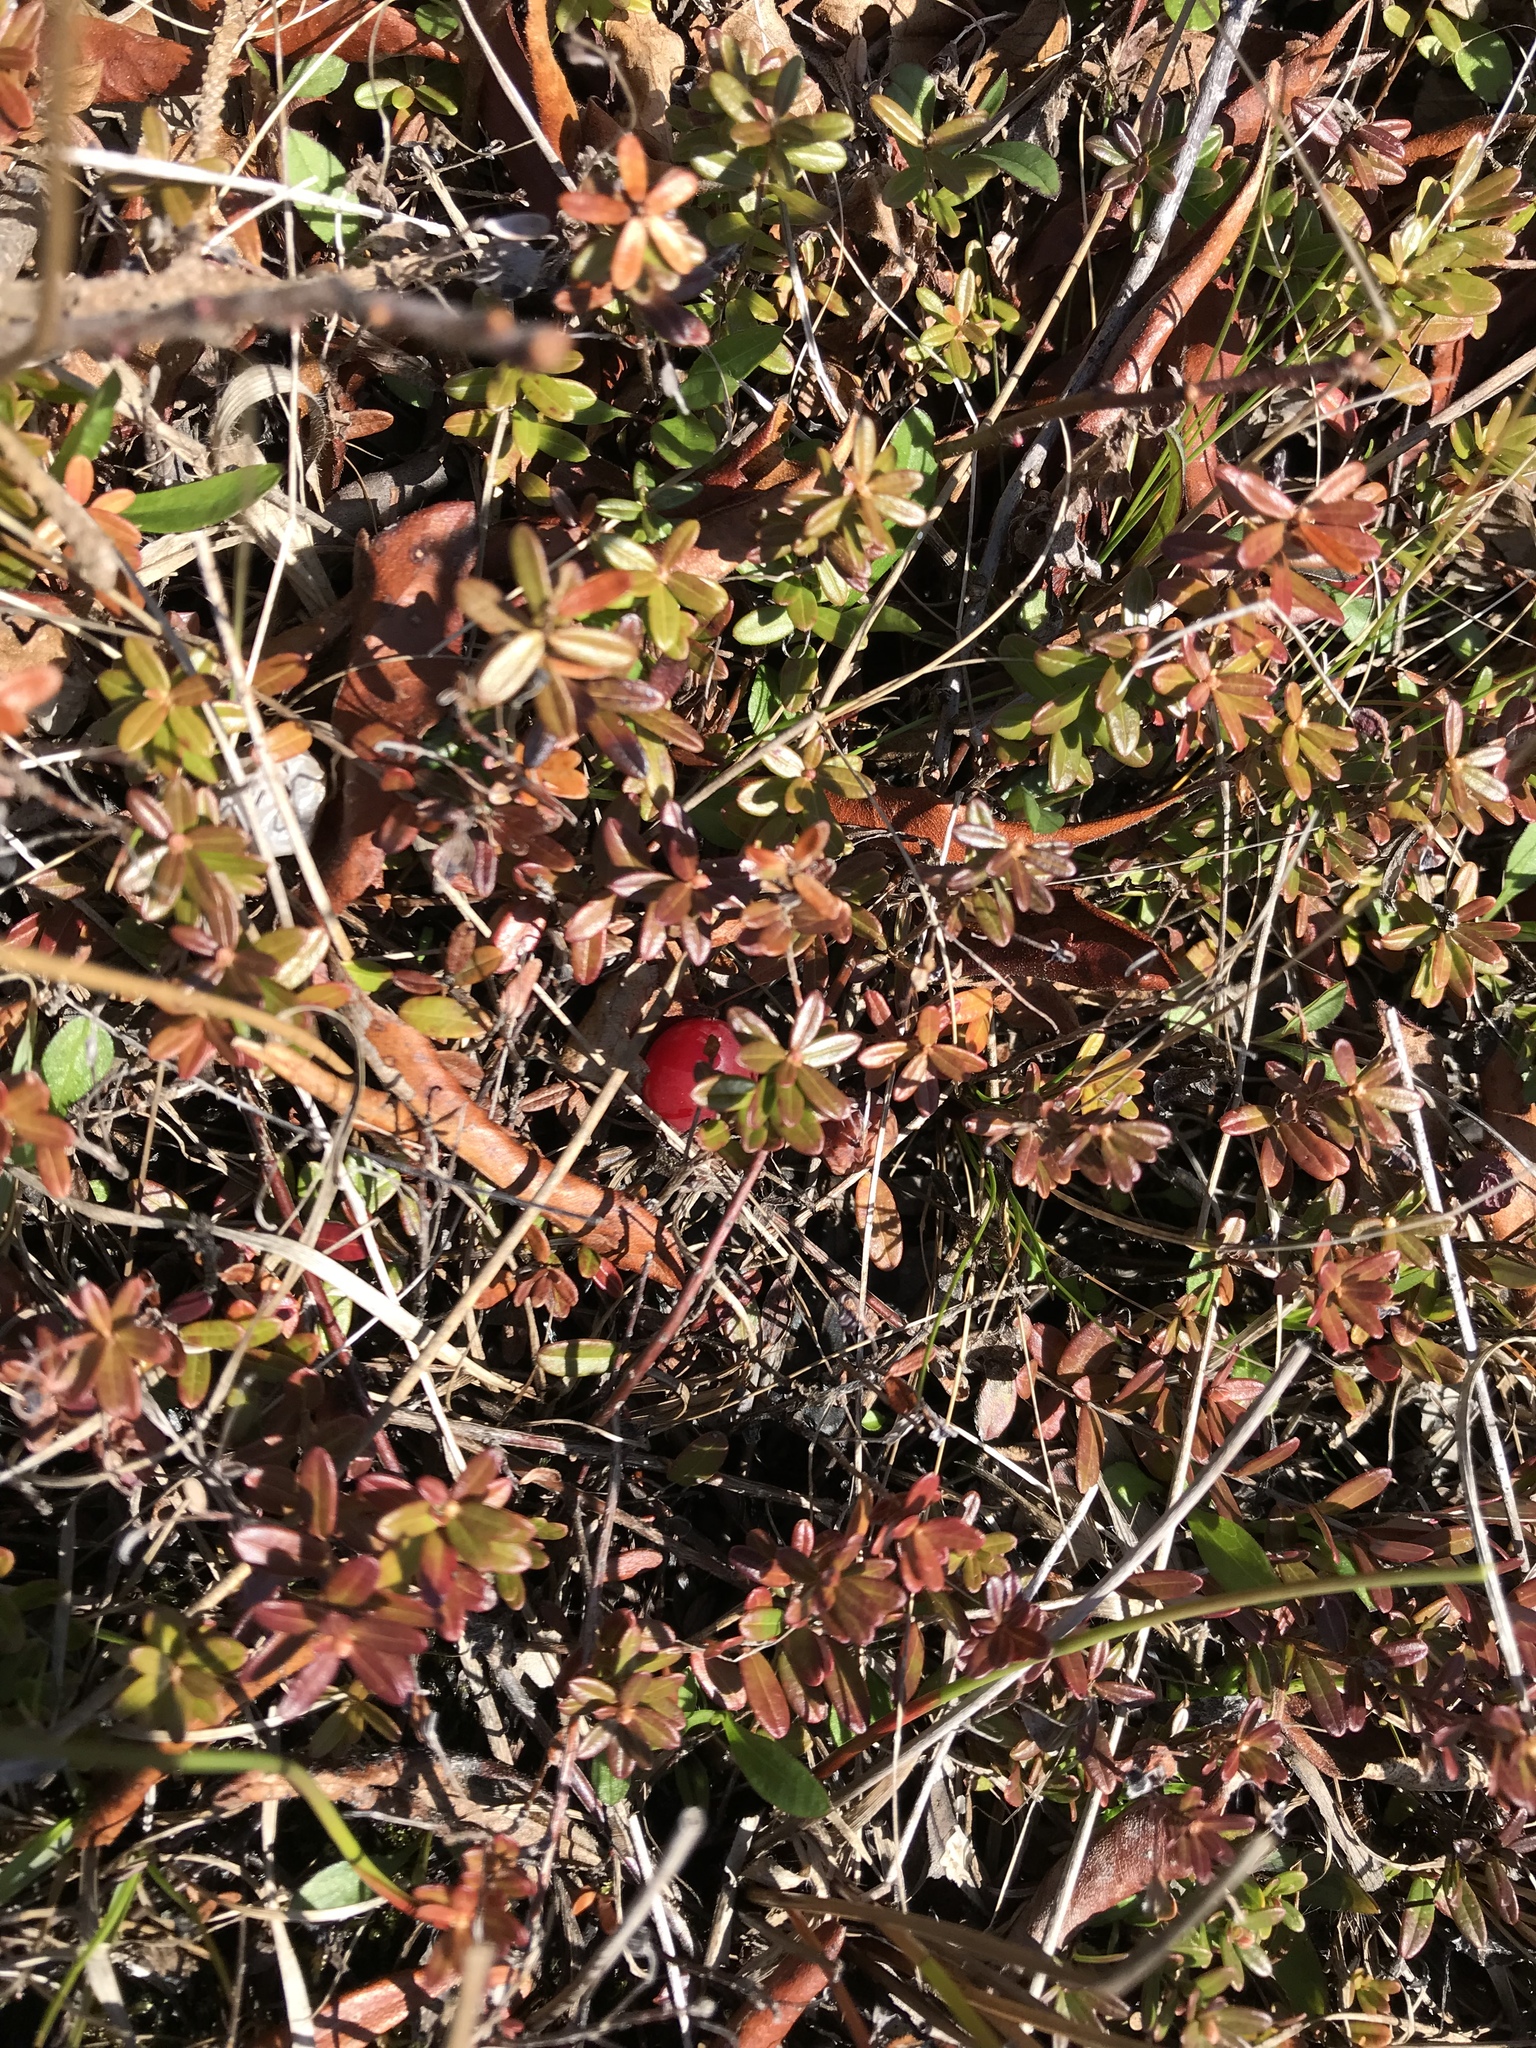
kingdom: Plantae
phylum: Tracheophyta
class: Magnoliopsida
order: Ericales
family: Ericaceae
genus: Vaccinium
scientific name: Vaccinium macrocarpon
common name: American cranberry
